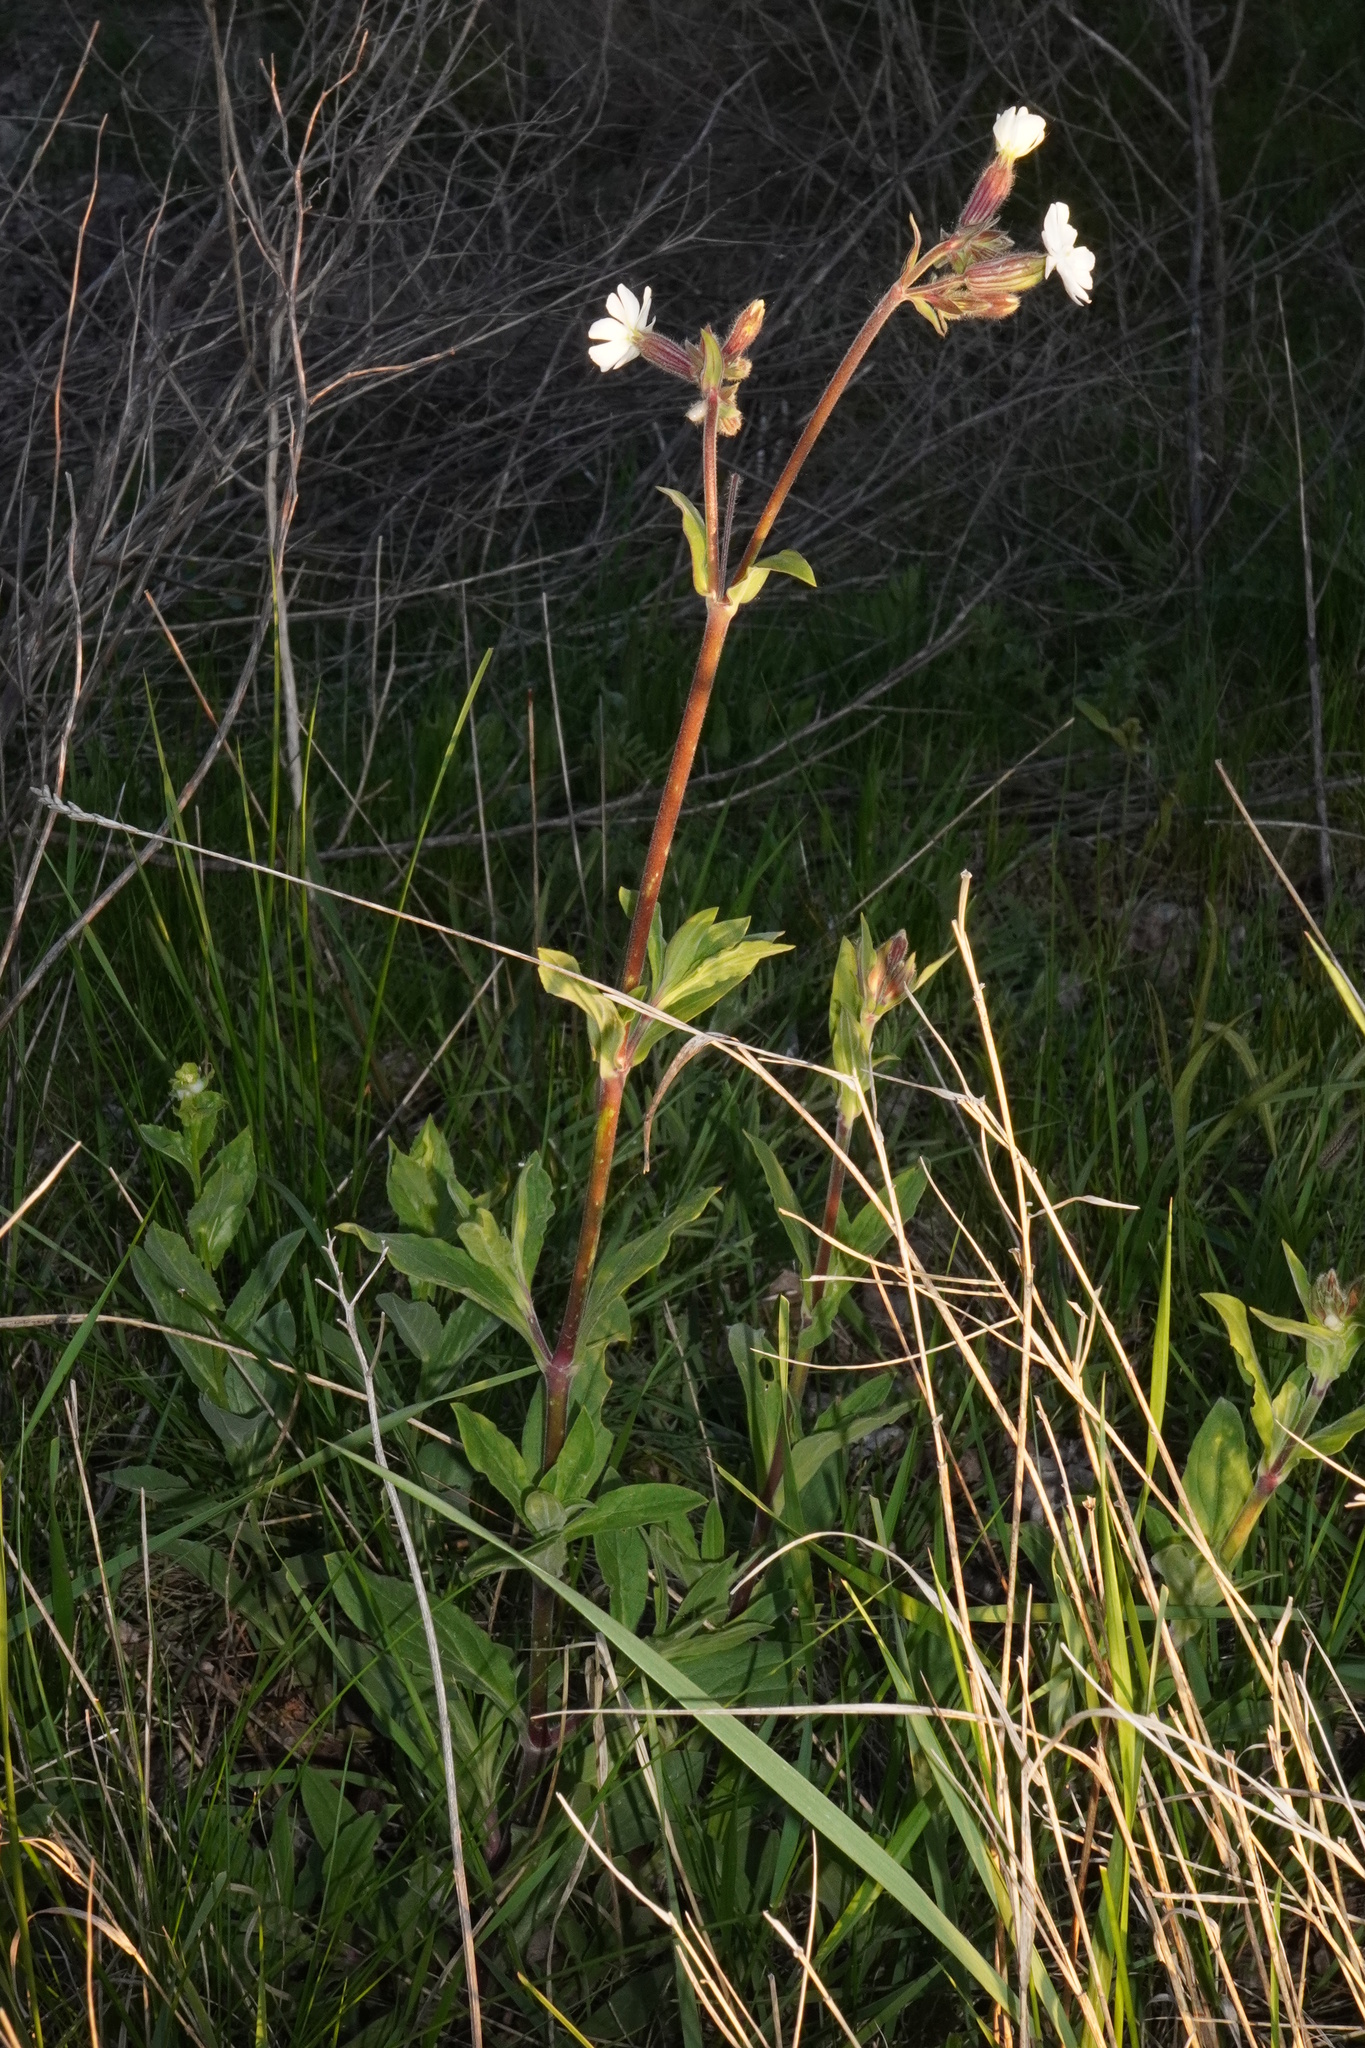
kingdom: Plantae
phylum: Tracheophyta
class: Magnoliopsida
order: Caryophyllales
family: Caryophyllaceae
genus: Silene
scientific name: Silene latifolia
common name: White campion
